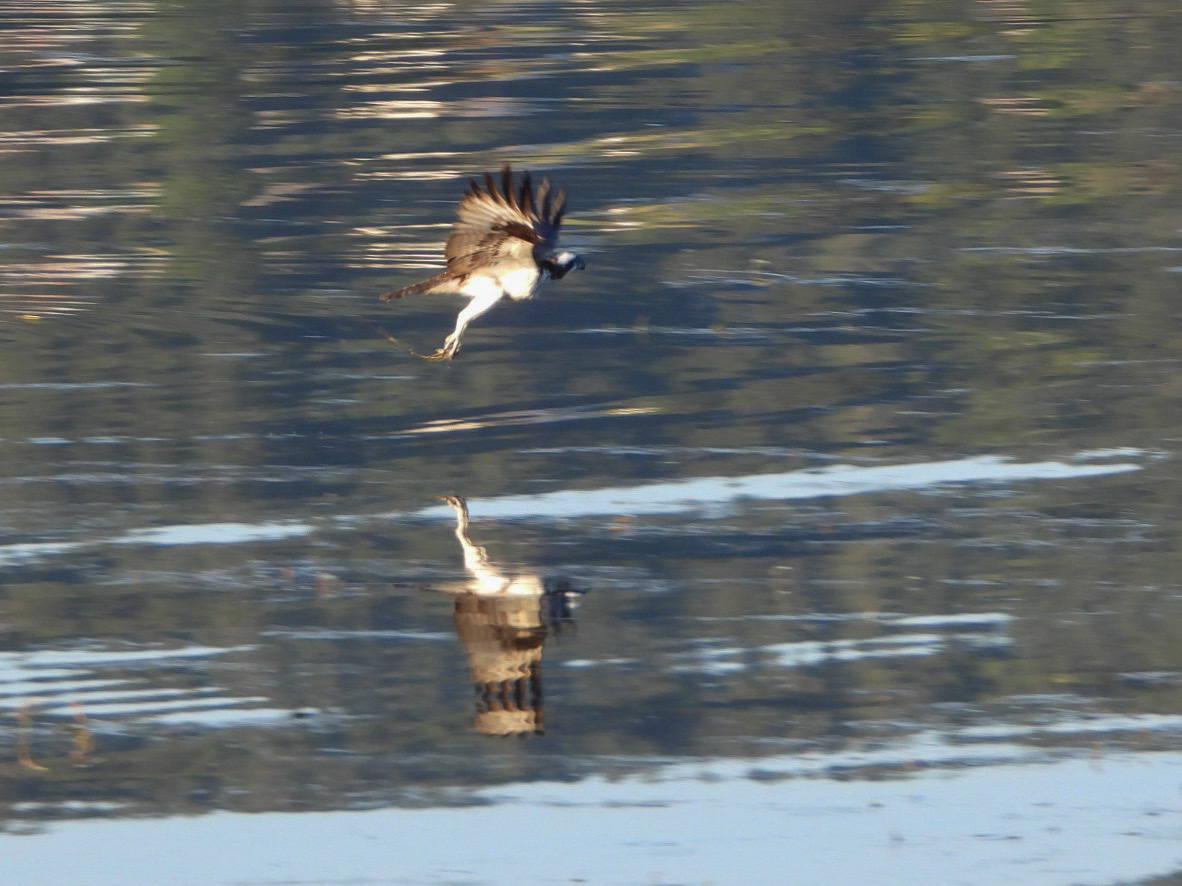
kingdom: Animalia
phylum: Chordata
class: Aves
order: Accipitriformes
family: Pandionidae
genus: Pandion
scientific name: Pandion haliaetus
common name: Osprey
